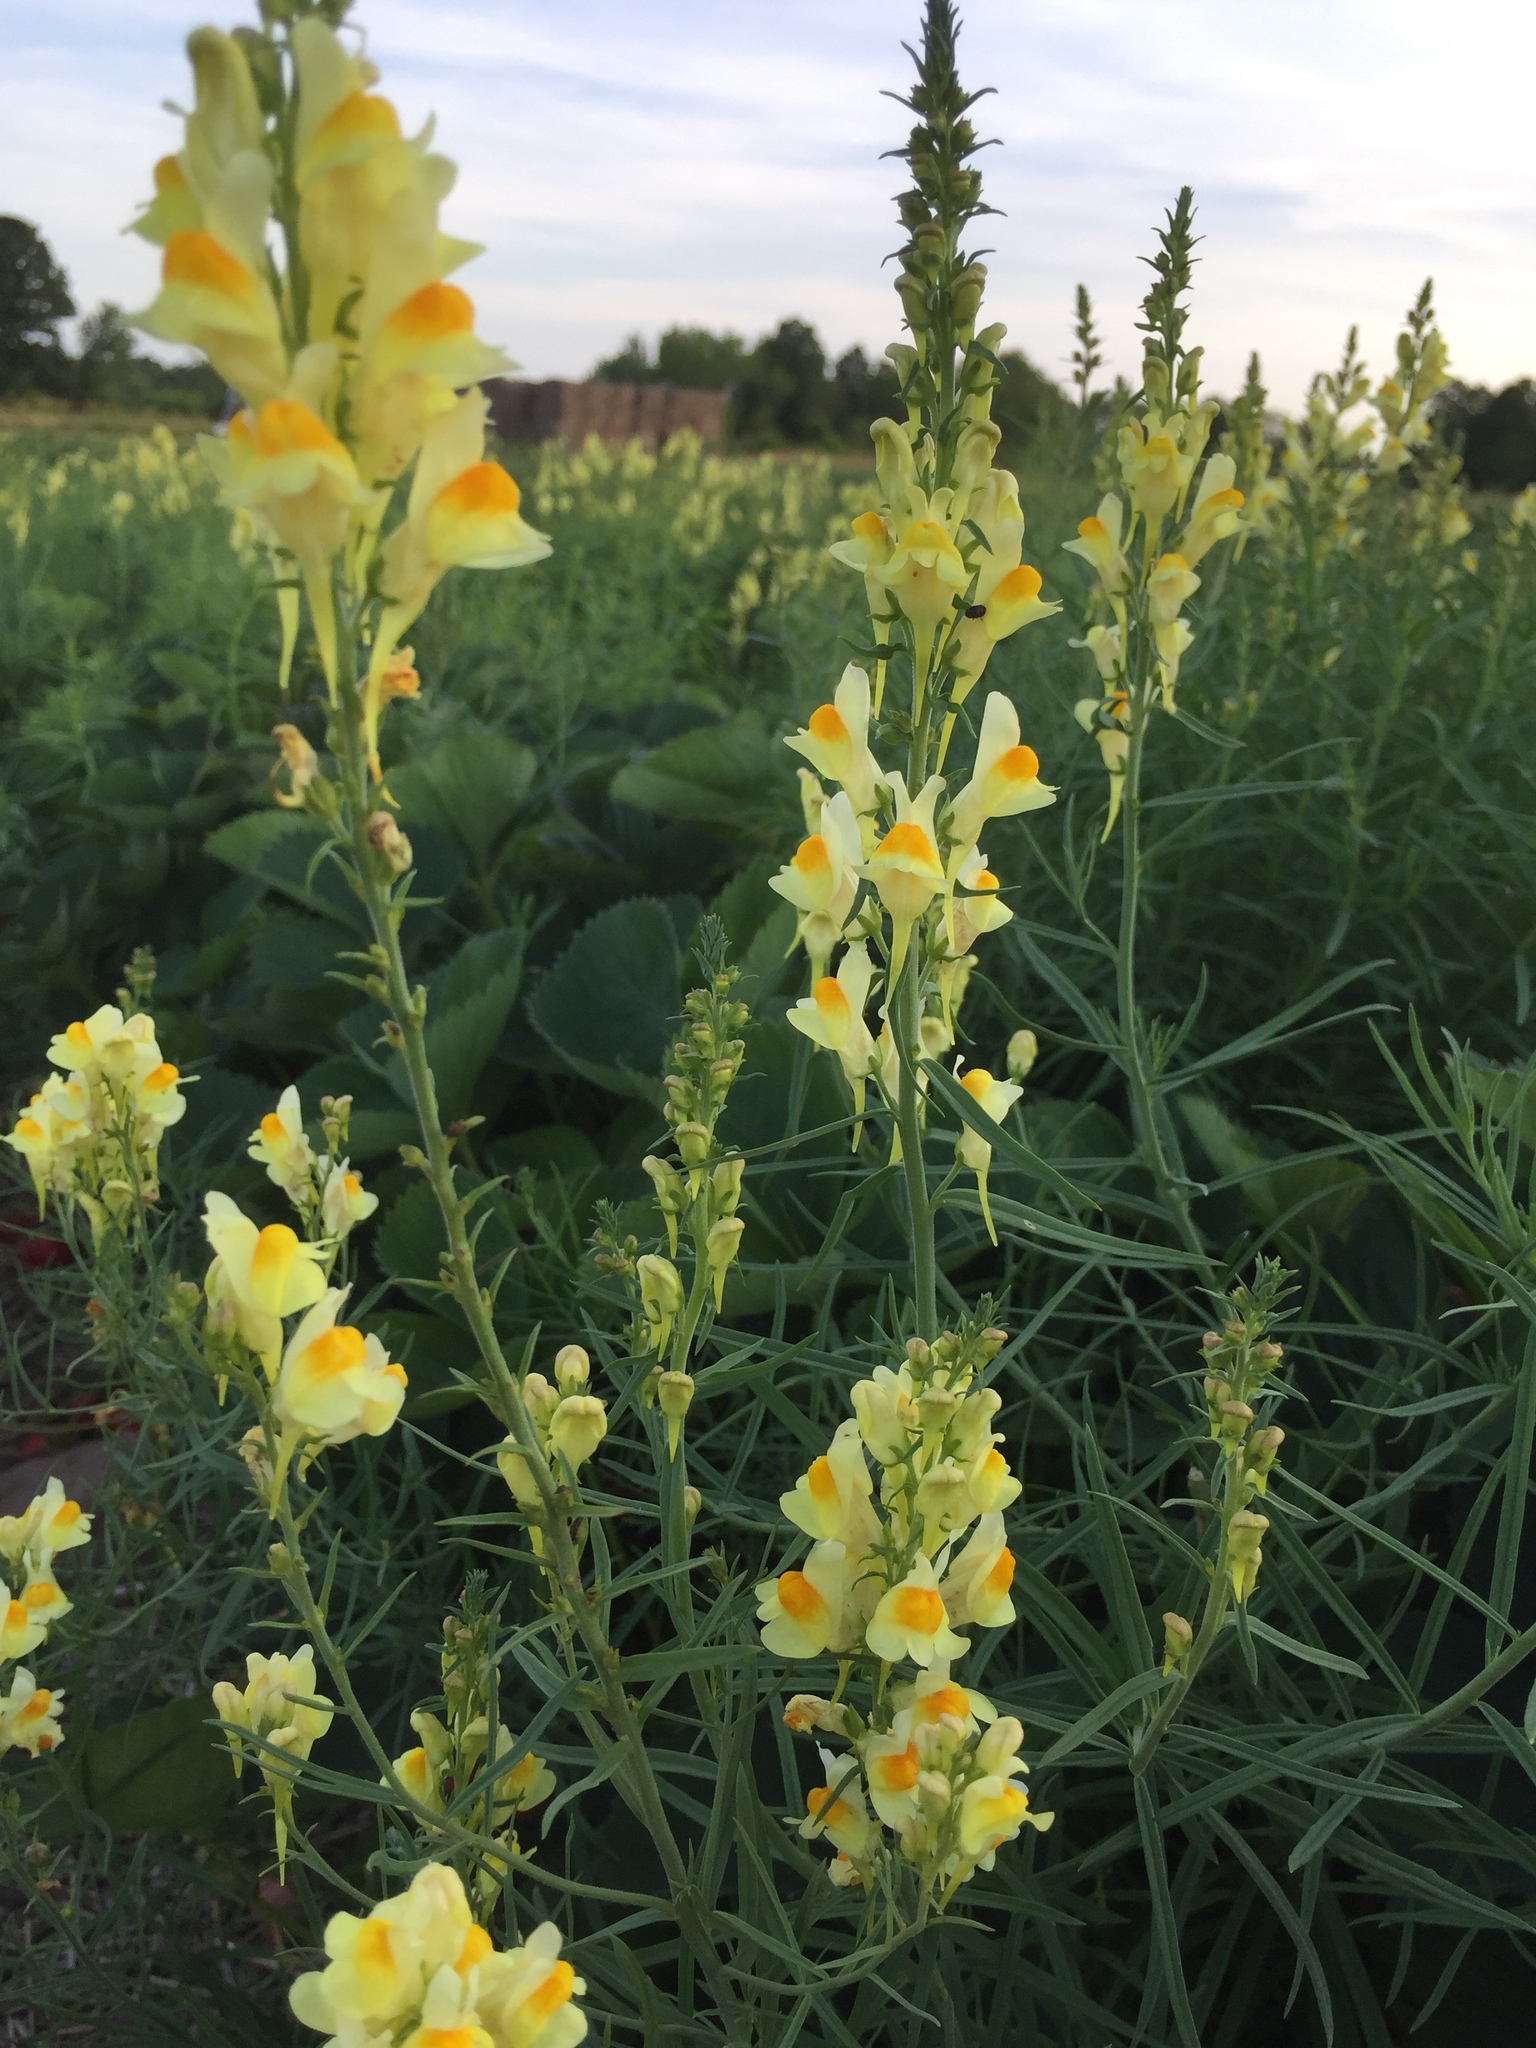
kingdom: Plantae
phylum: Tracheophyta
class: Magnoliopsida
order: Lamiales
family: Plantaginaceae
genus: Linaria
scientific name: Linaria vulgaris
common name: Butter and eggs
